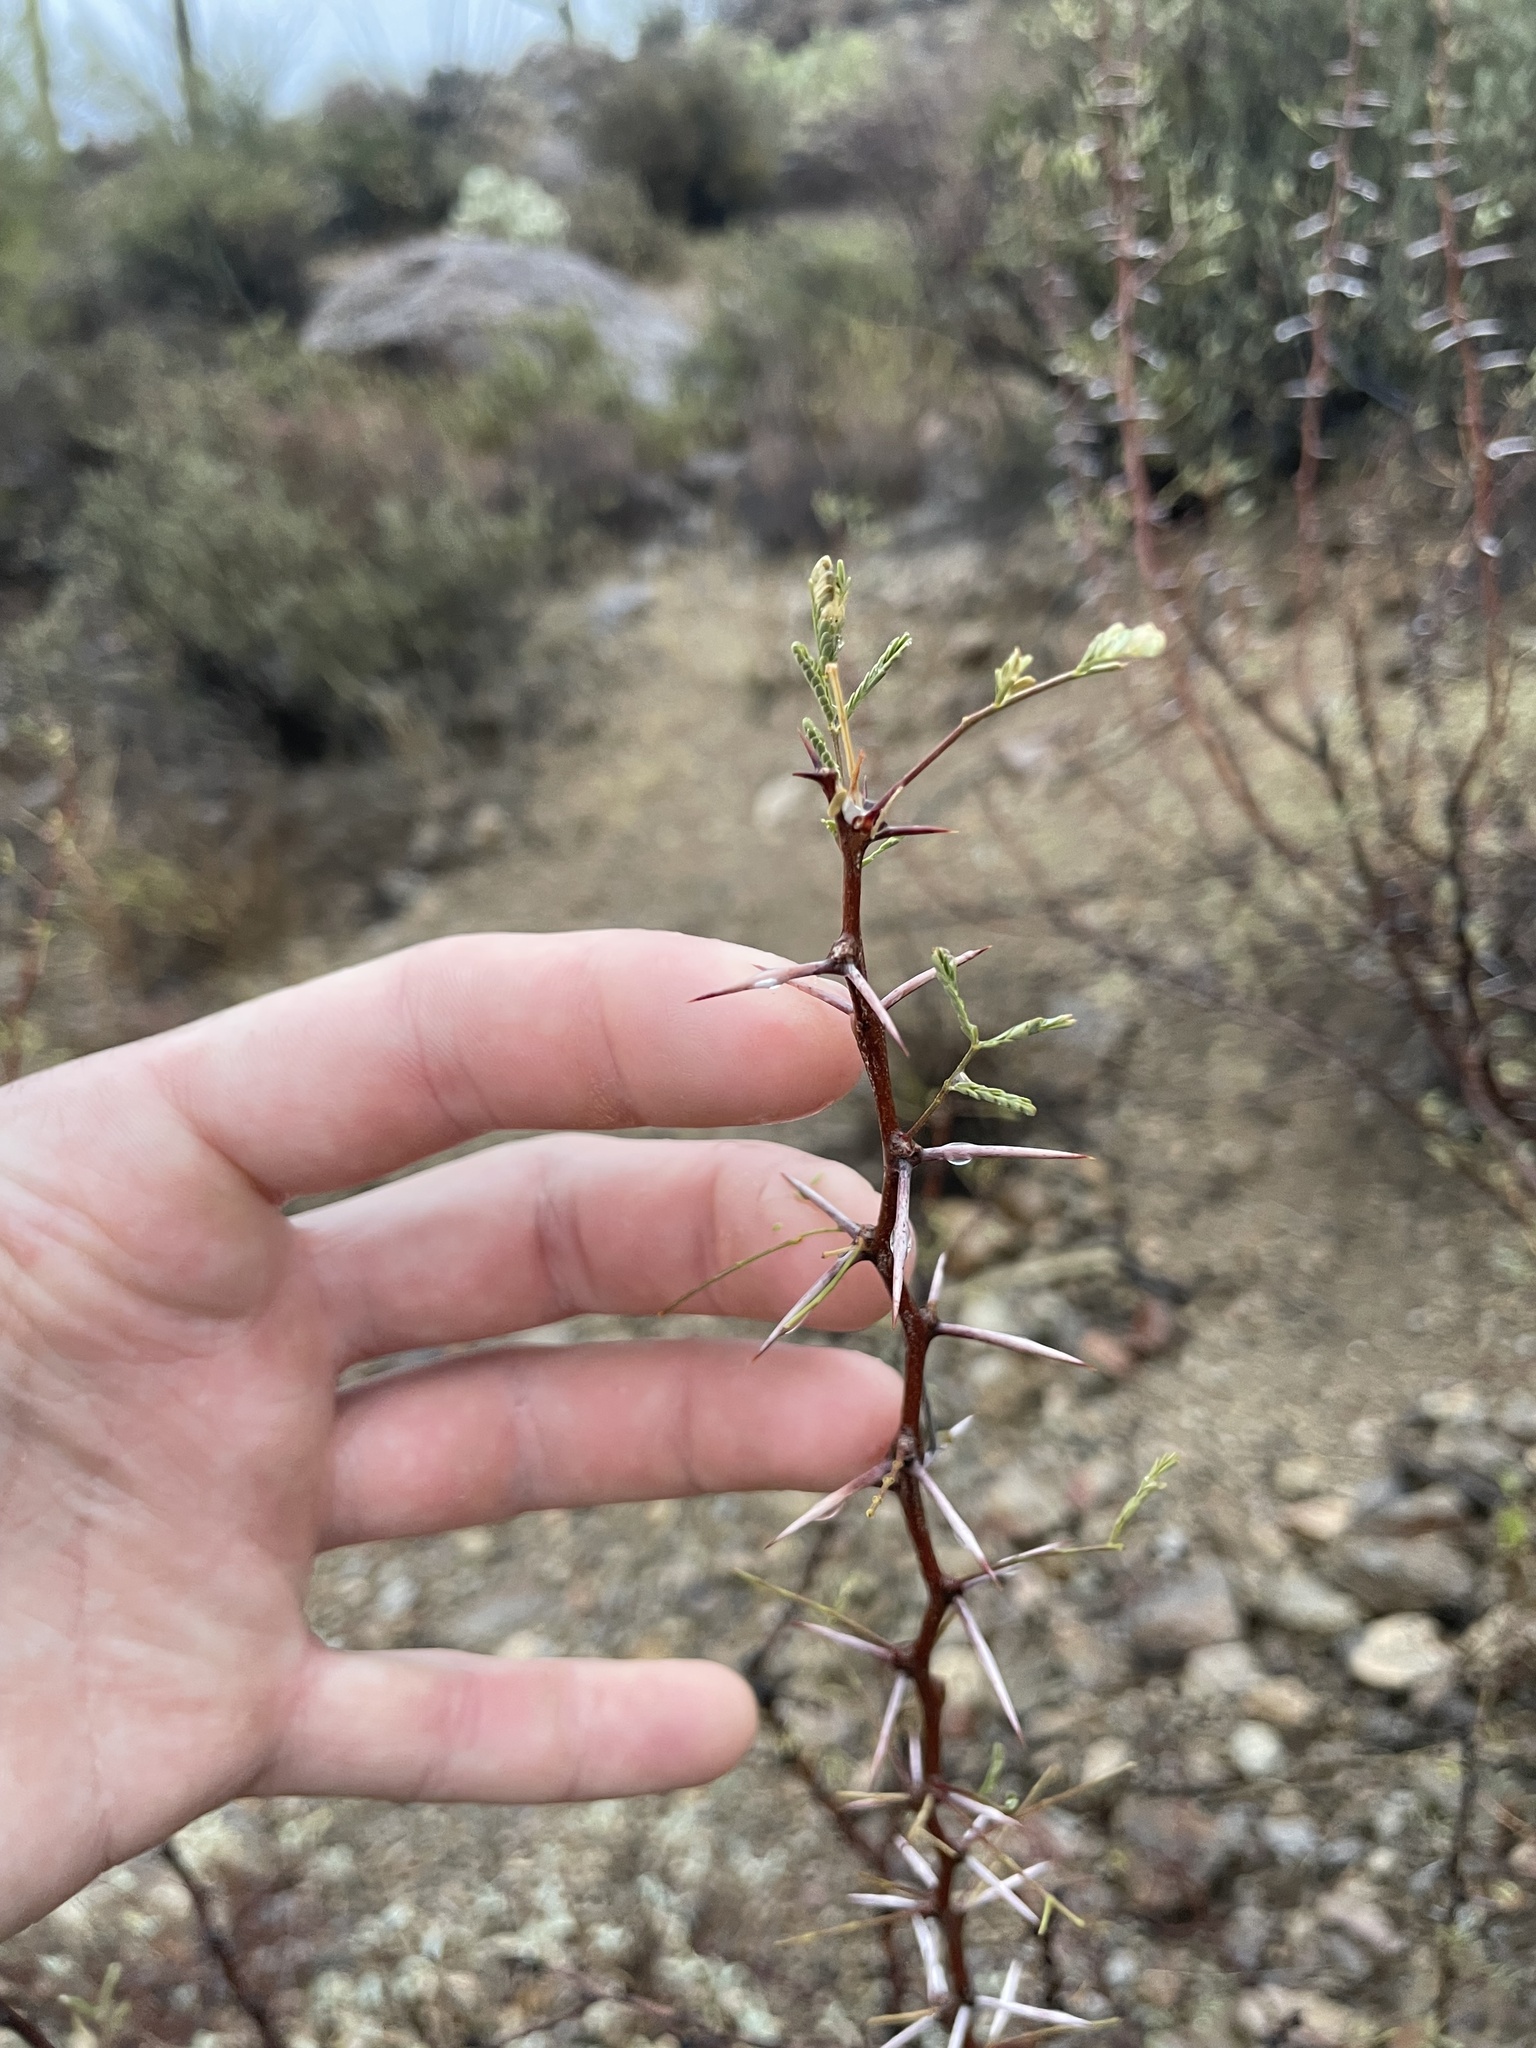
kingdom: Plantae
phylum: Tracheophyta
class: Magnoliopsida
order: Fabales
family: Fabaceae
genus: Vachellia
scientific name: Vachellia constricta
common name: Mescat acacia
